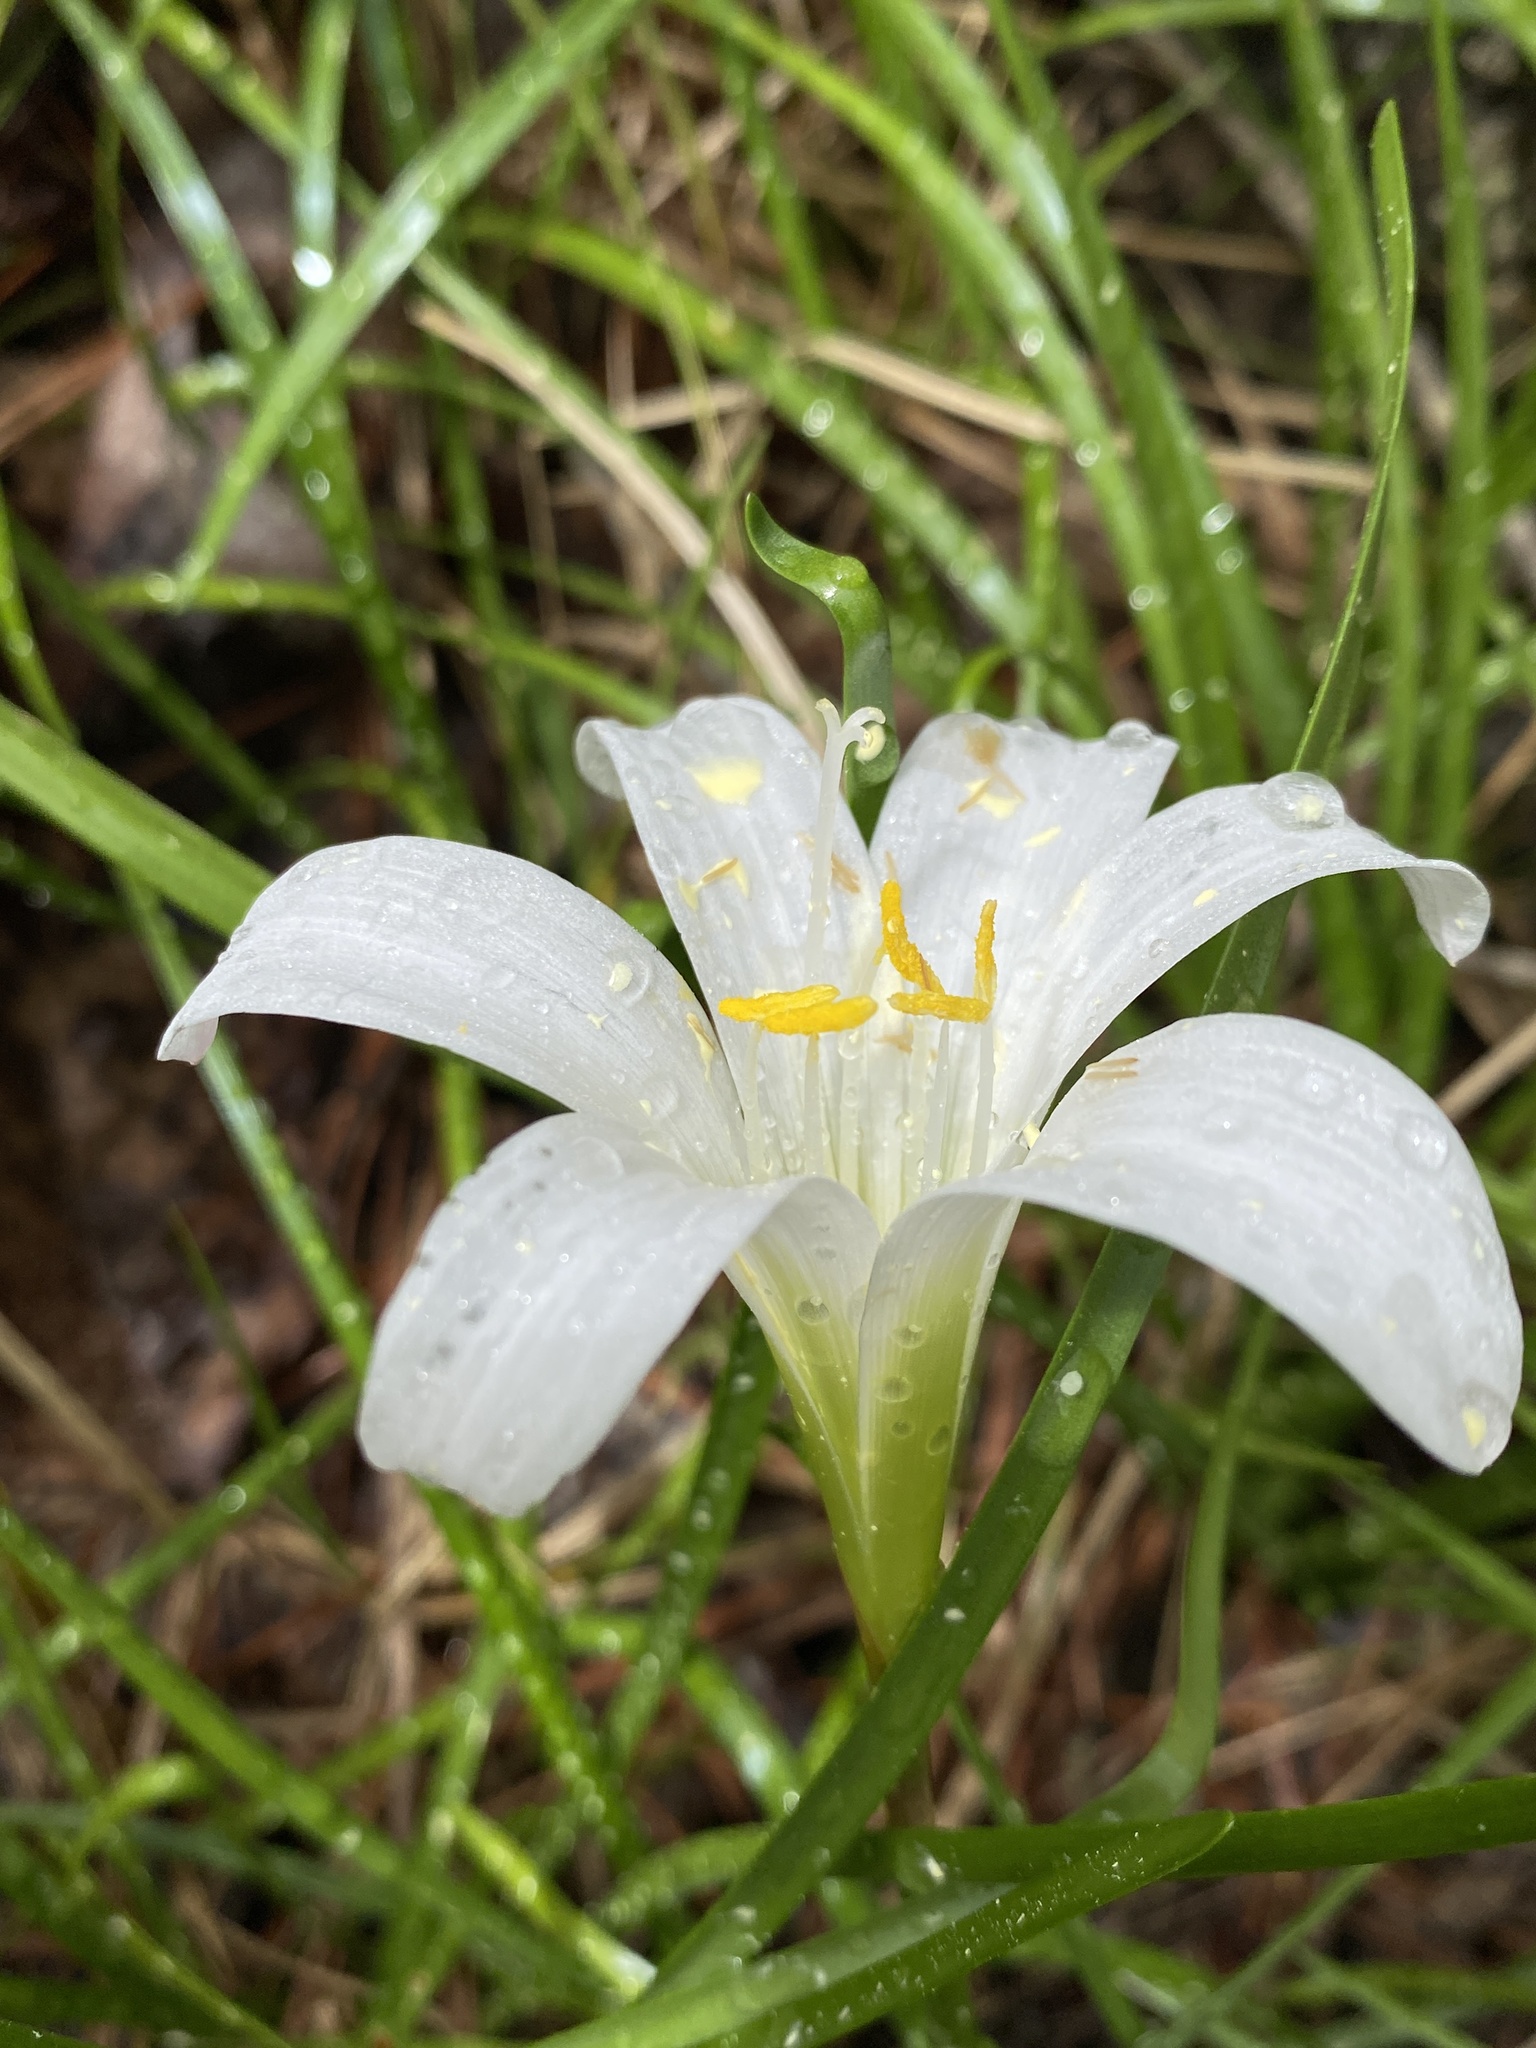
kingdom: Plantae
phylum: Tracheophyta
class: Liliopsida
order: Asparagales
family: Amaryllidaceae
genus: Zephyranthes
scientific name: Zephyranthes atamasco
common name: Atamasco lily
